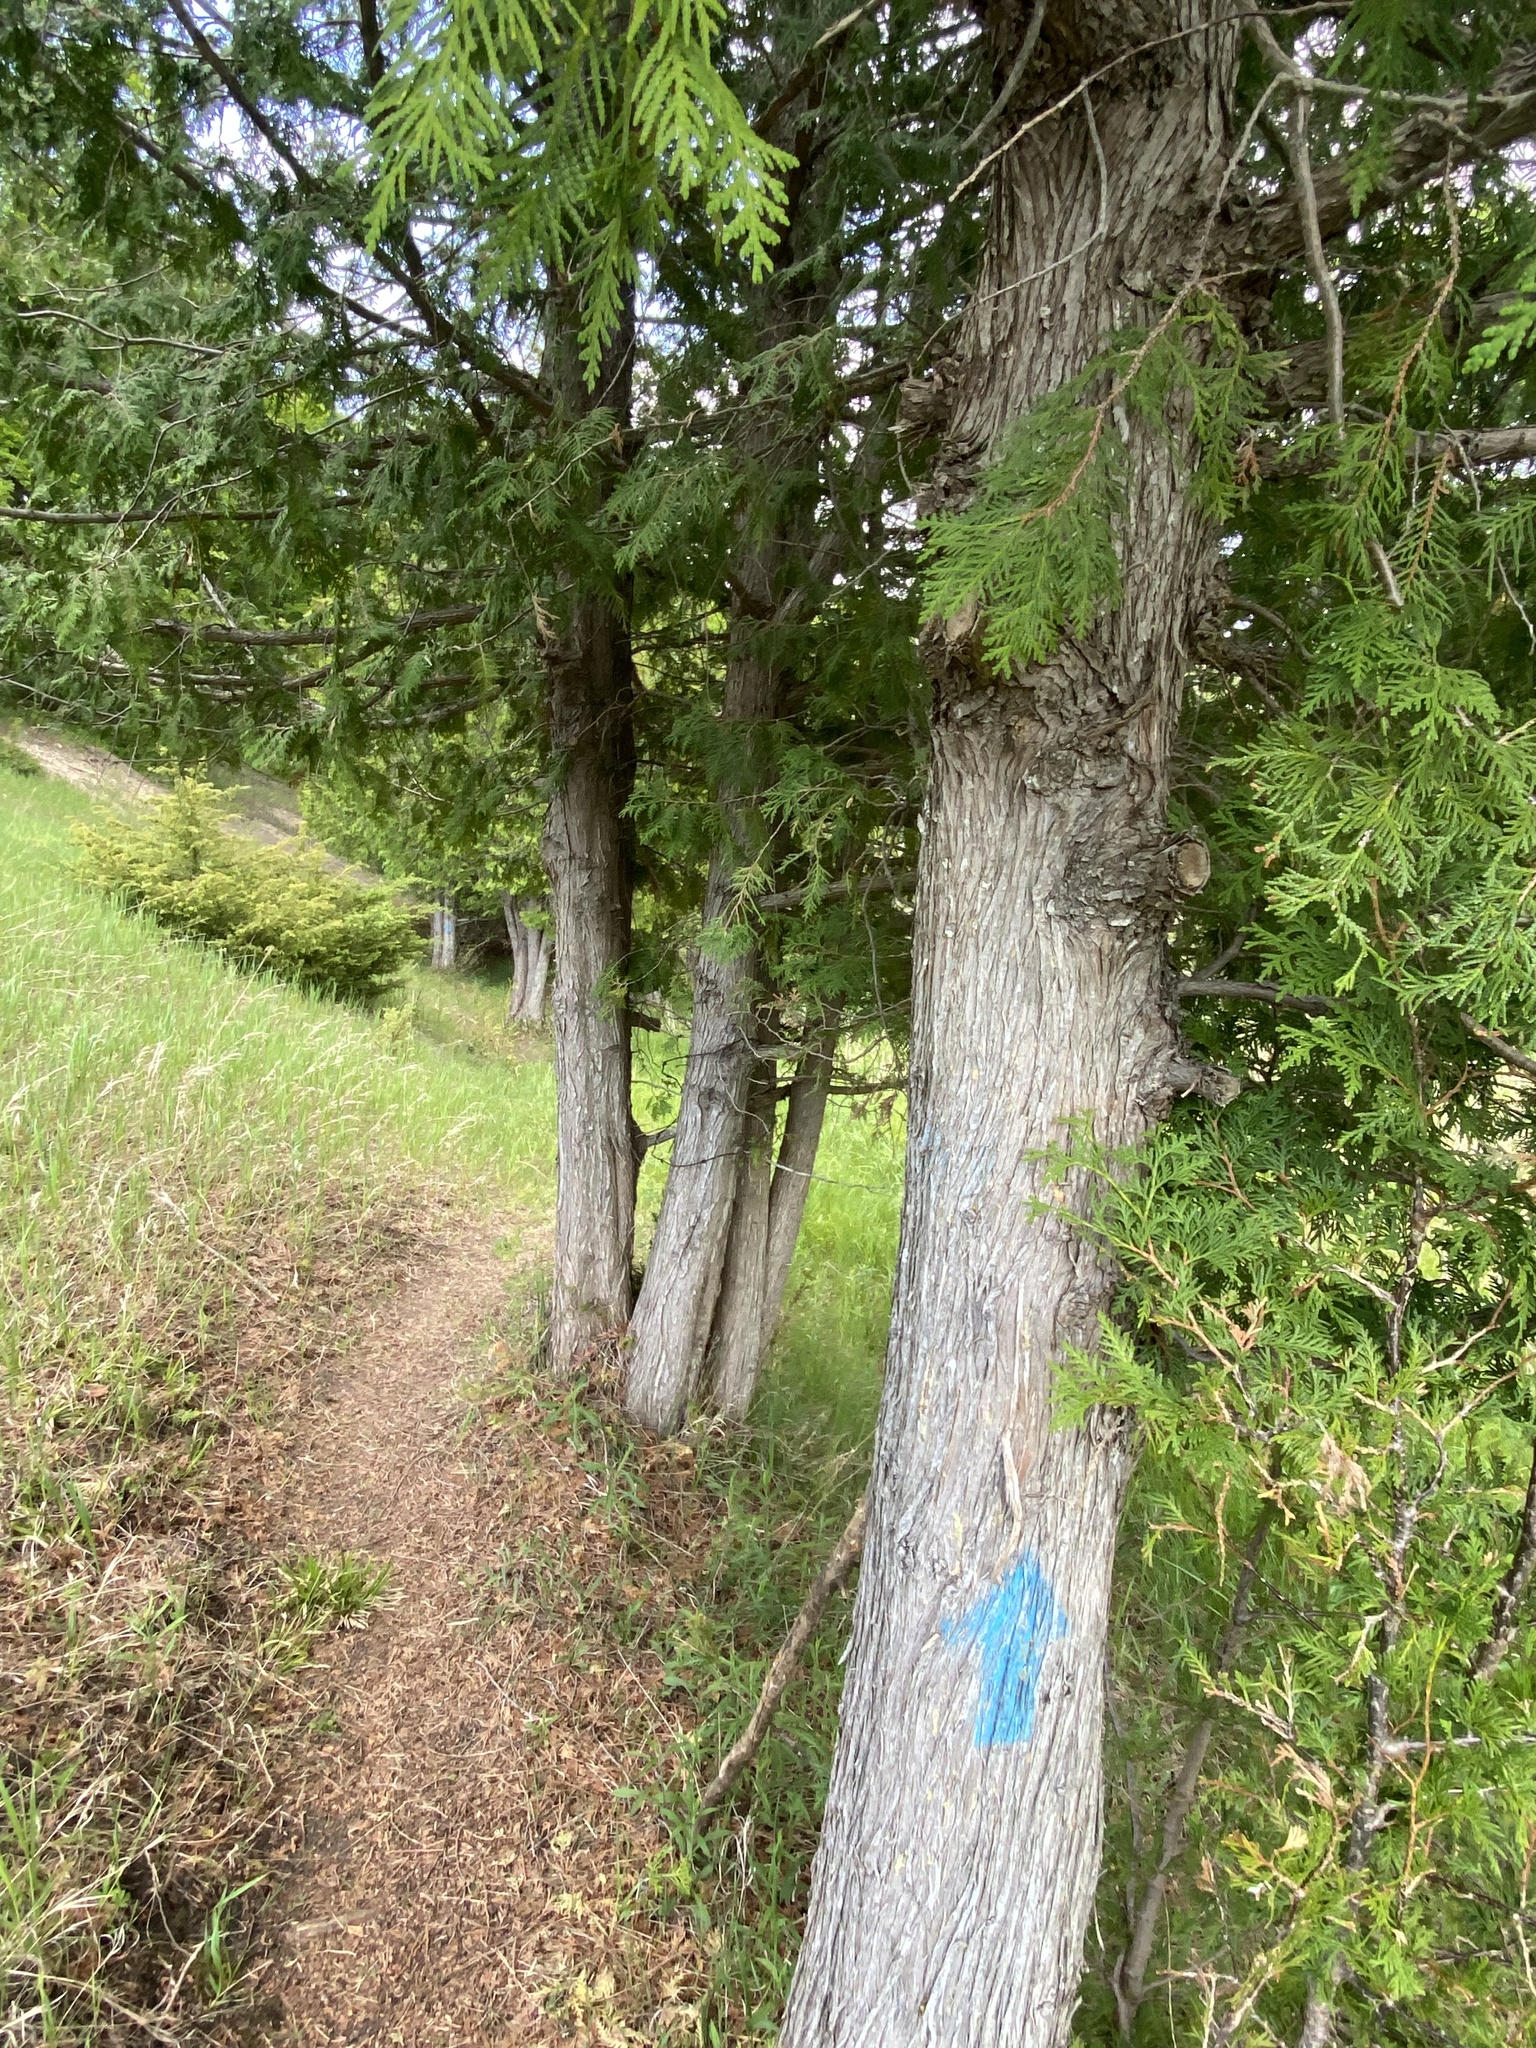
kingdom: Plantae
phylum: Tracheophyta
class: Pinopsida
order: Pinales
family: Cupressaceae
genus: Thuja
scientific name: Thuja occidentalis
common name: Northern white-cedar
